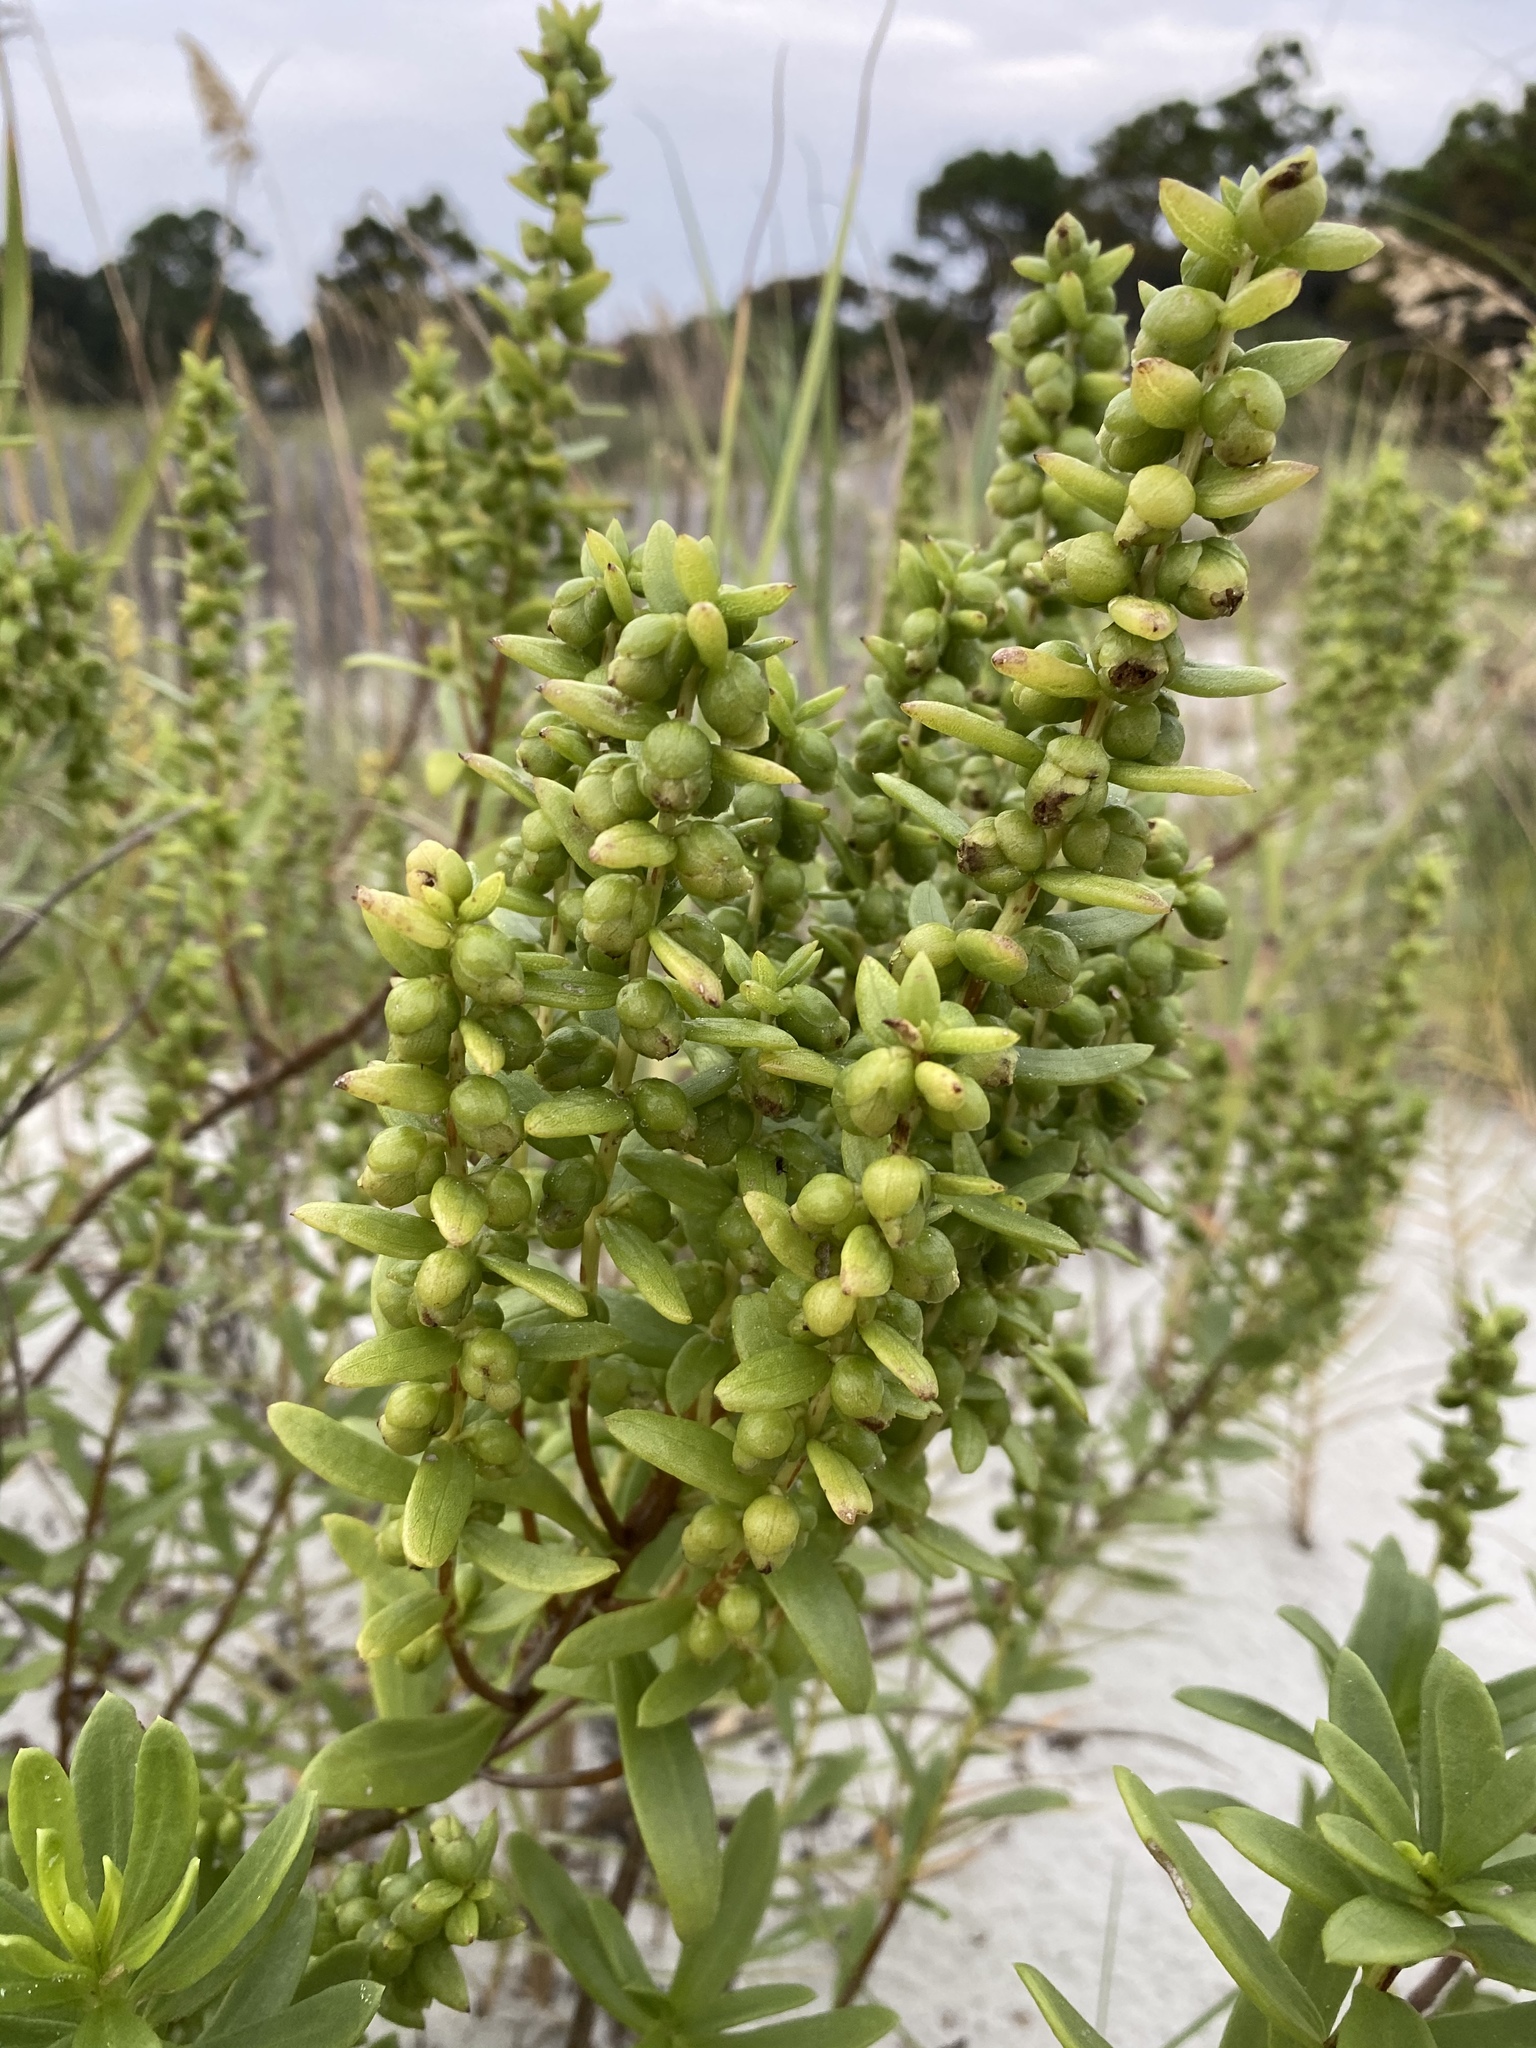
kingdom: Plantae
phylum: Tracheophyta
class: Magnoliopsida
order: Asterales
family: Asteraceae
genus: Iva
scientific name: Iva imbricata
